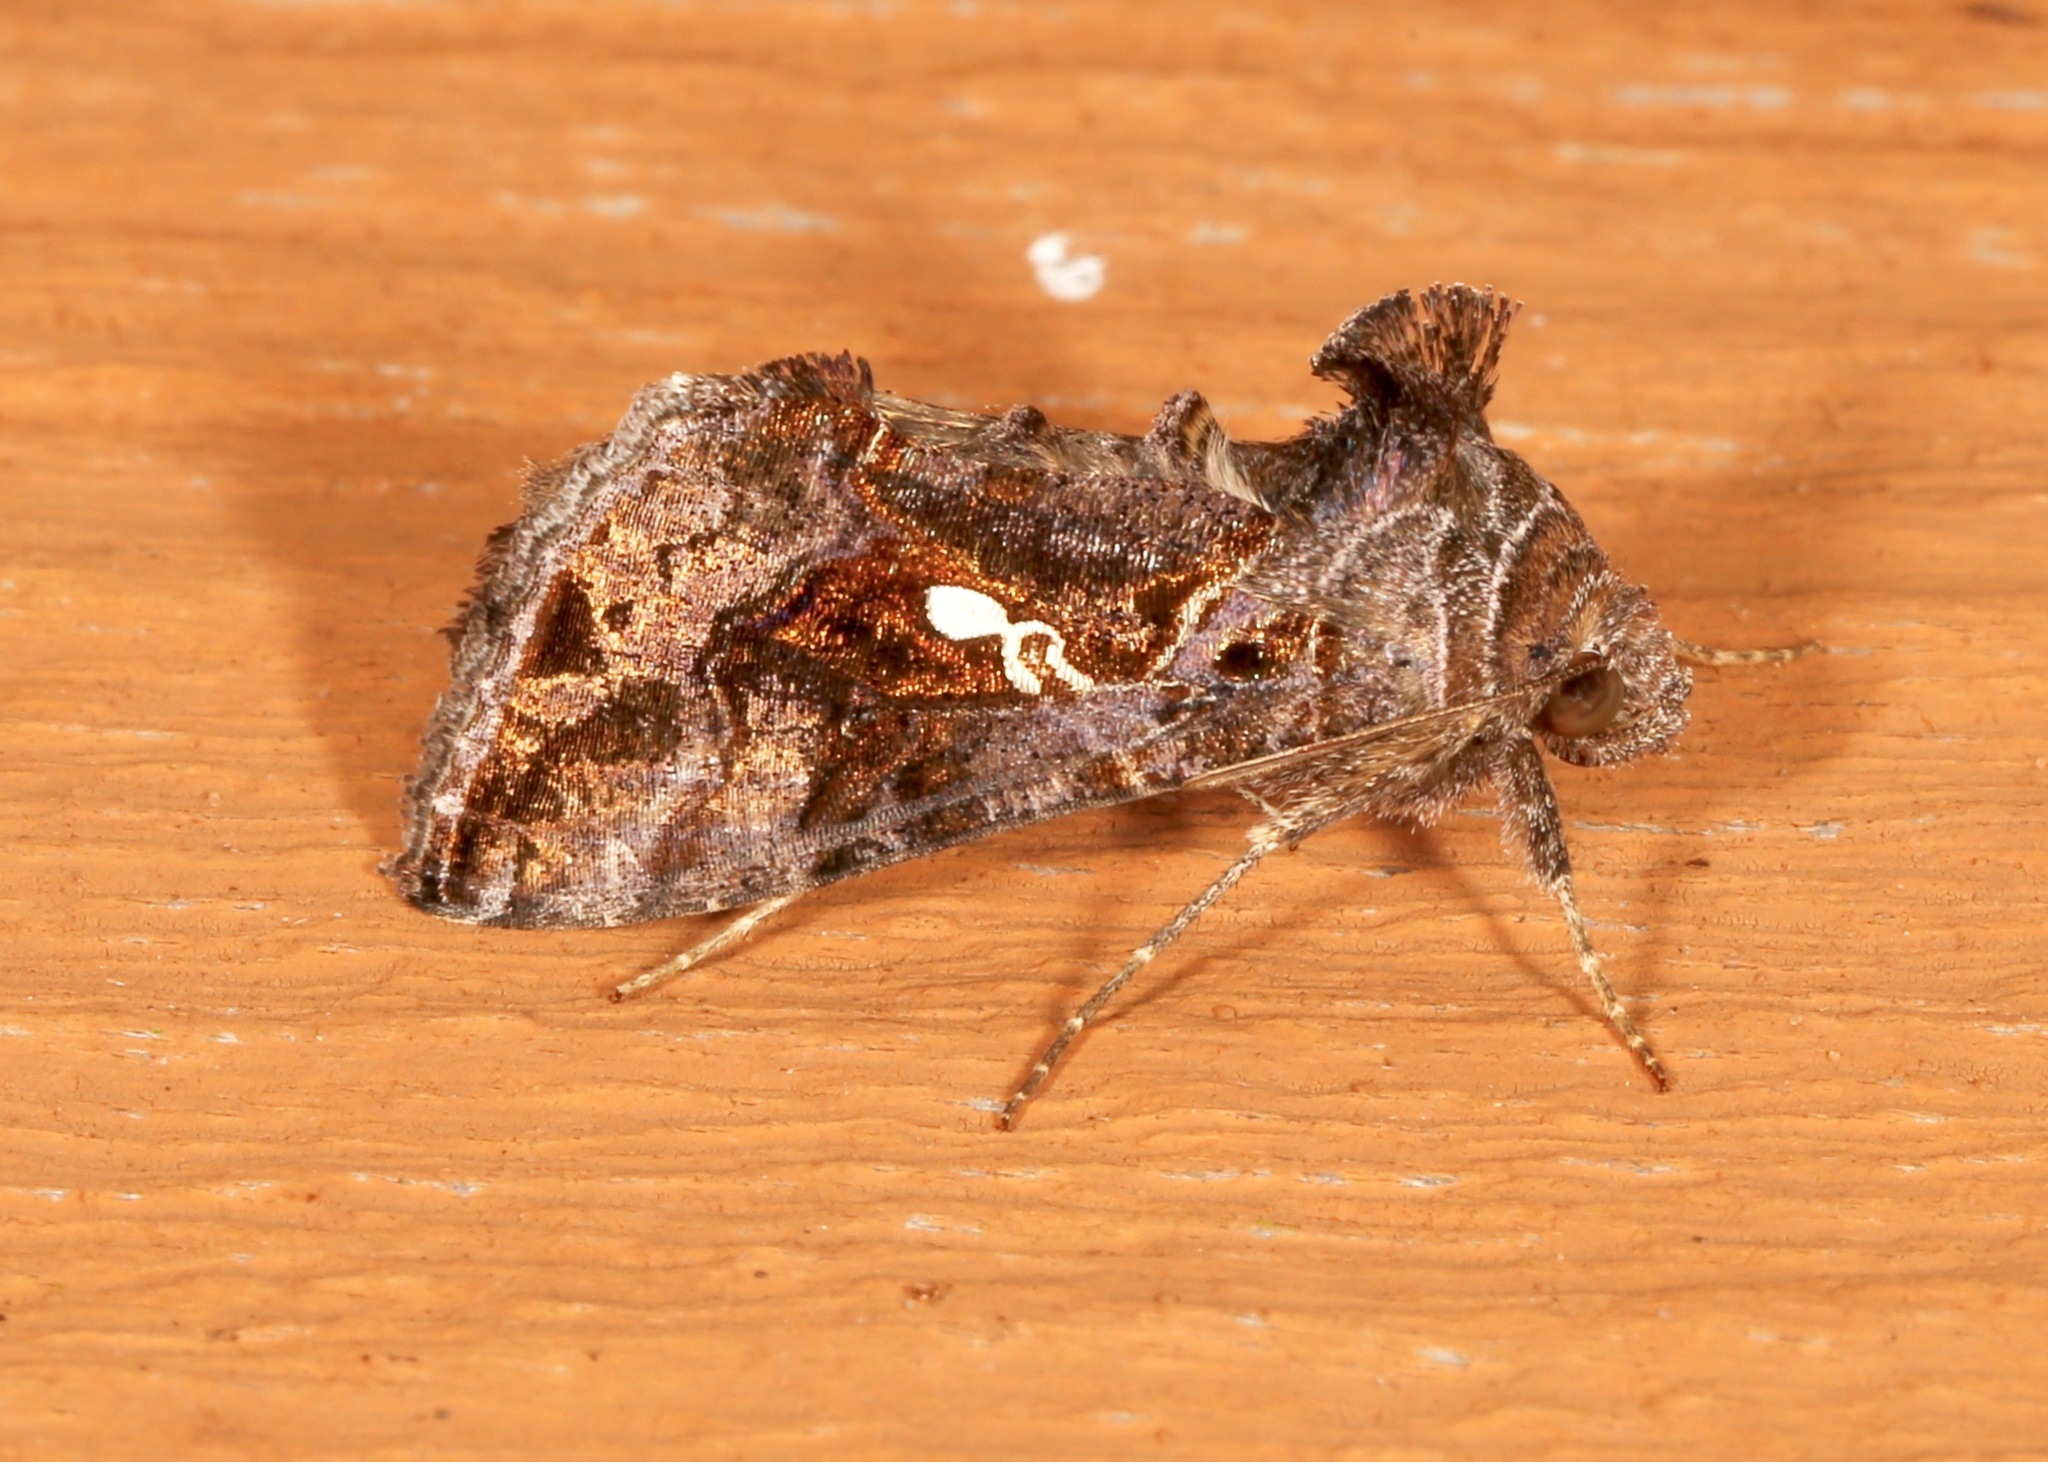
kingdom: Animalia
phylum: Arthropoda
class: Insecta
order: Lepidoptera
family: Noctuidae
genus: Chrysodeixis
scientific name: Chrysodeixis includens
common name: Cutworm moth
